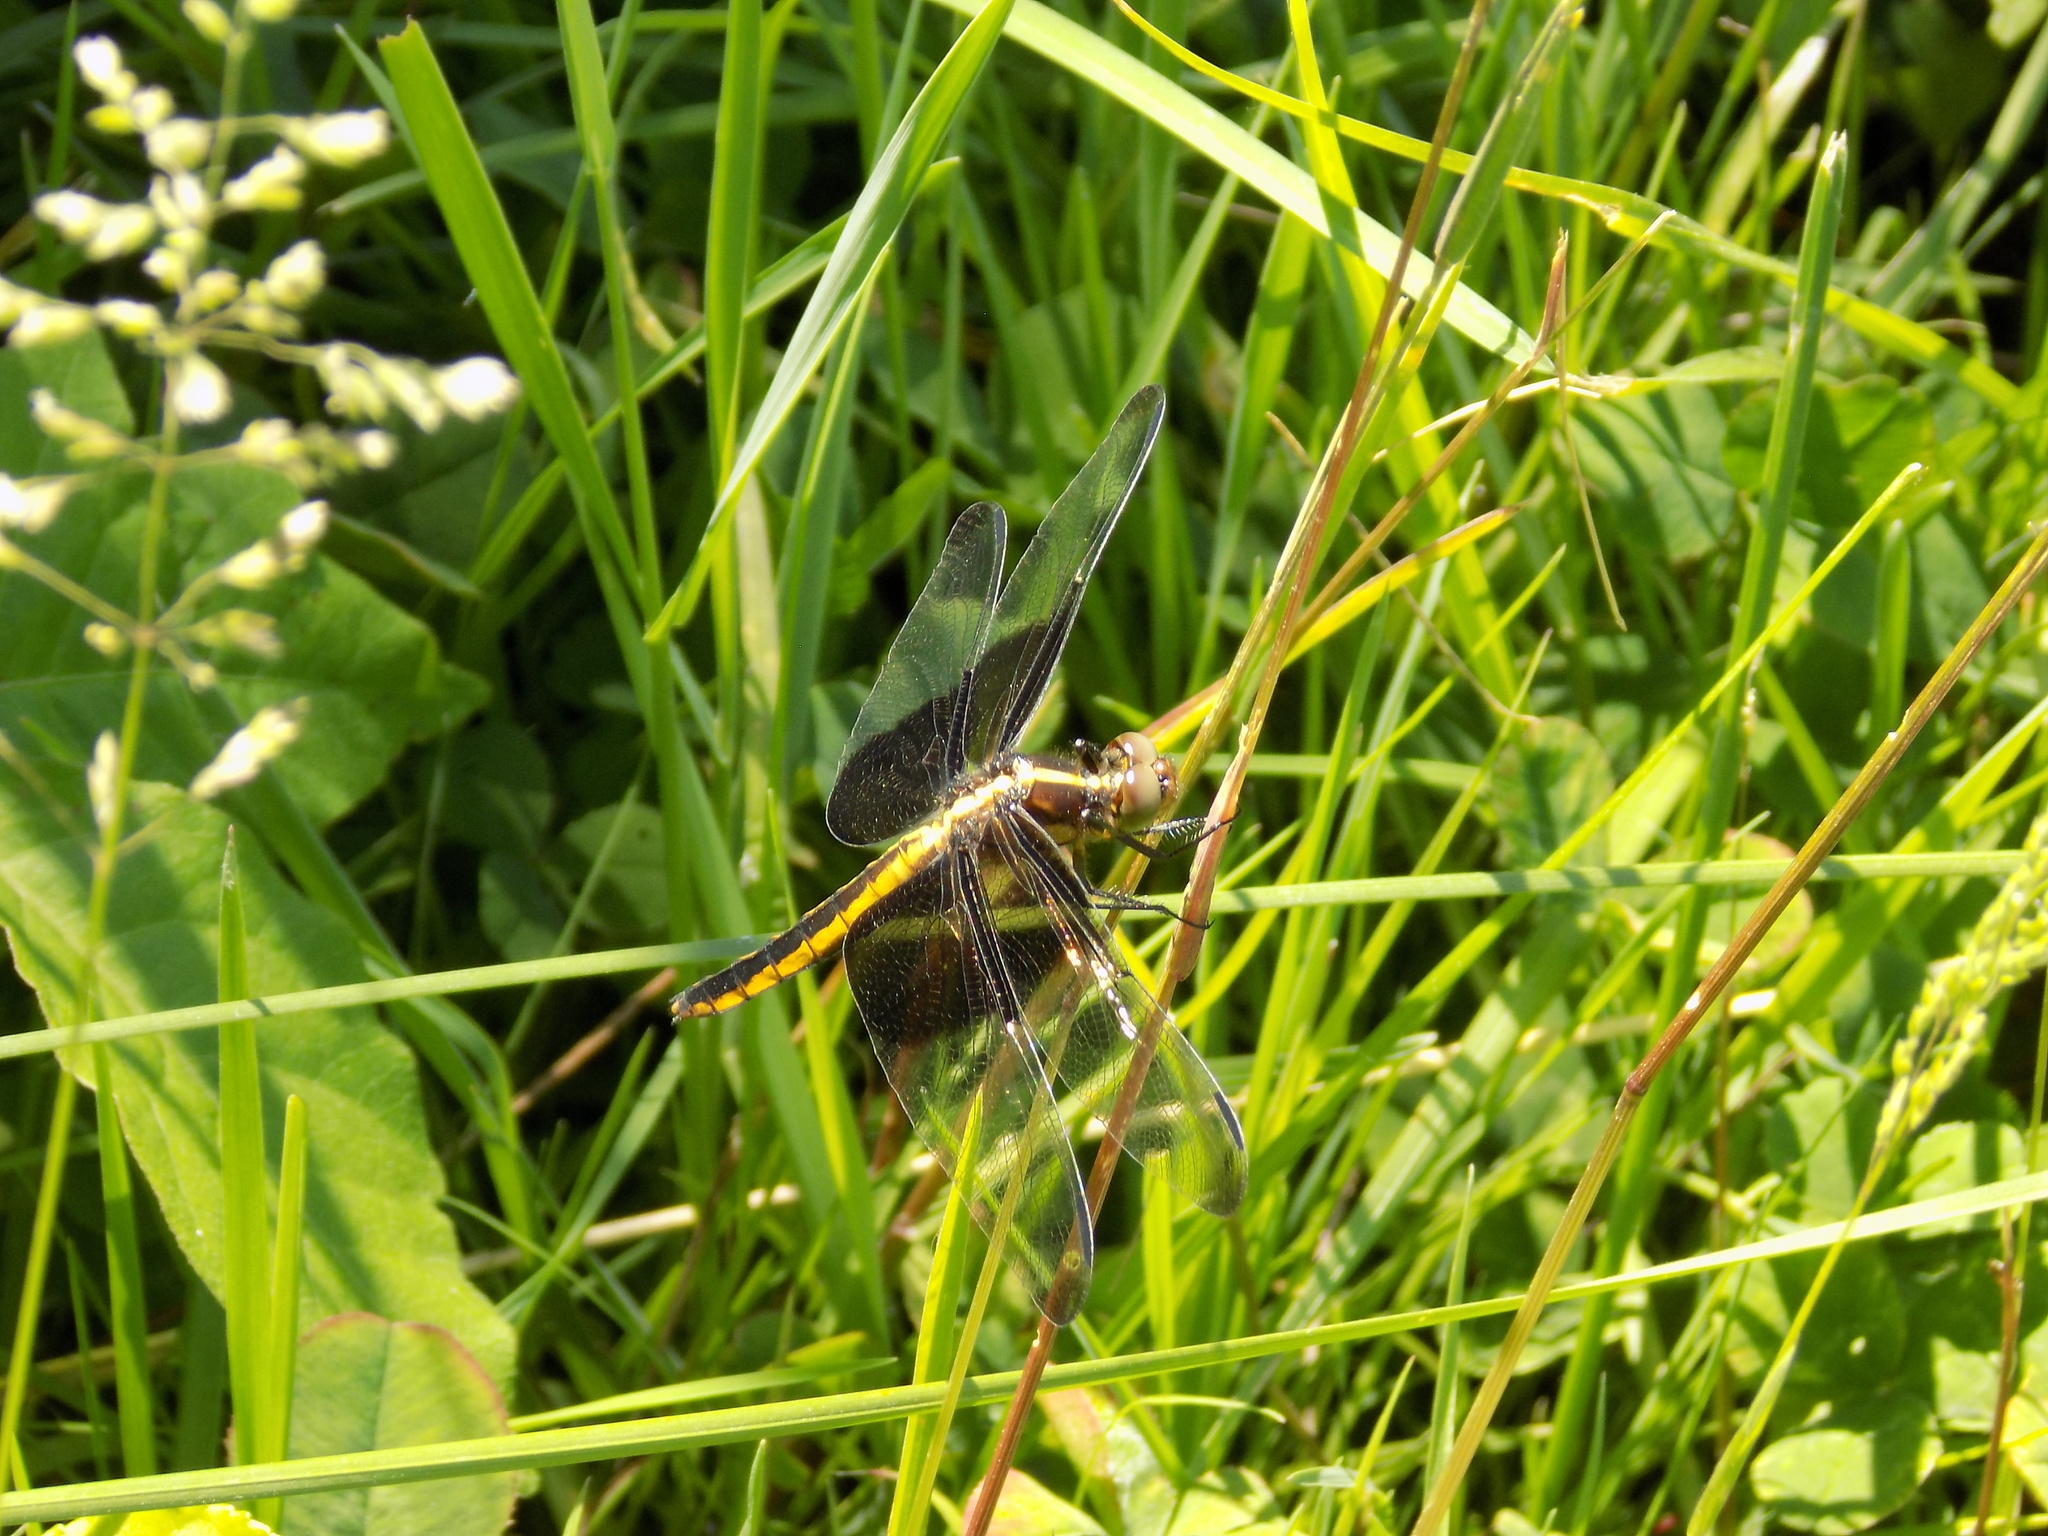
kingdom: Animalia
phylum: Arthropoda
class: Insecta
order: Odonata
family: Libellulidae
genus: Libellula
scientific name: Libellula luctuosa
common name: Widow skimmer
